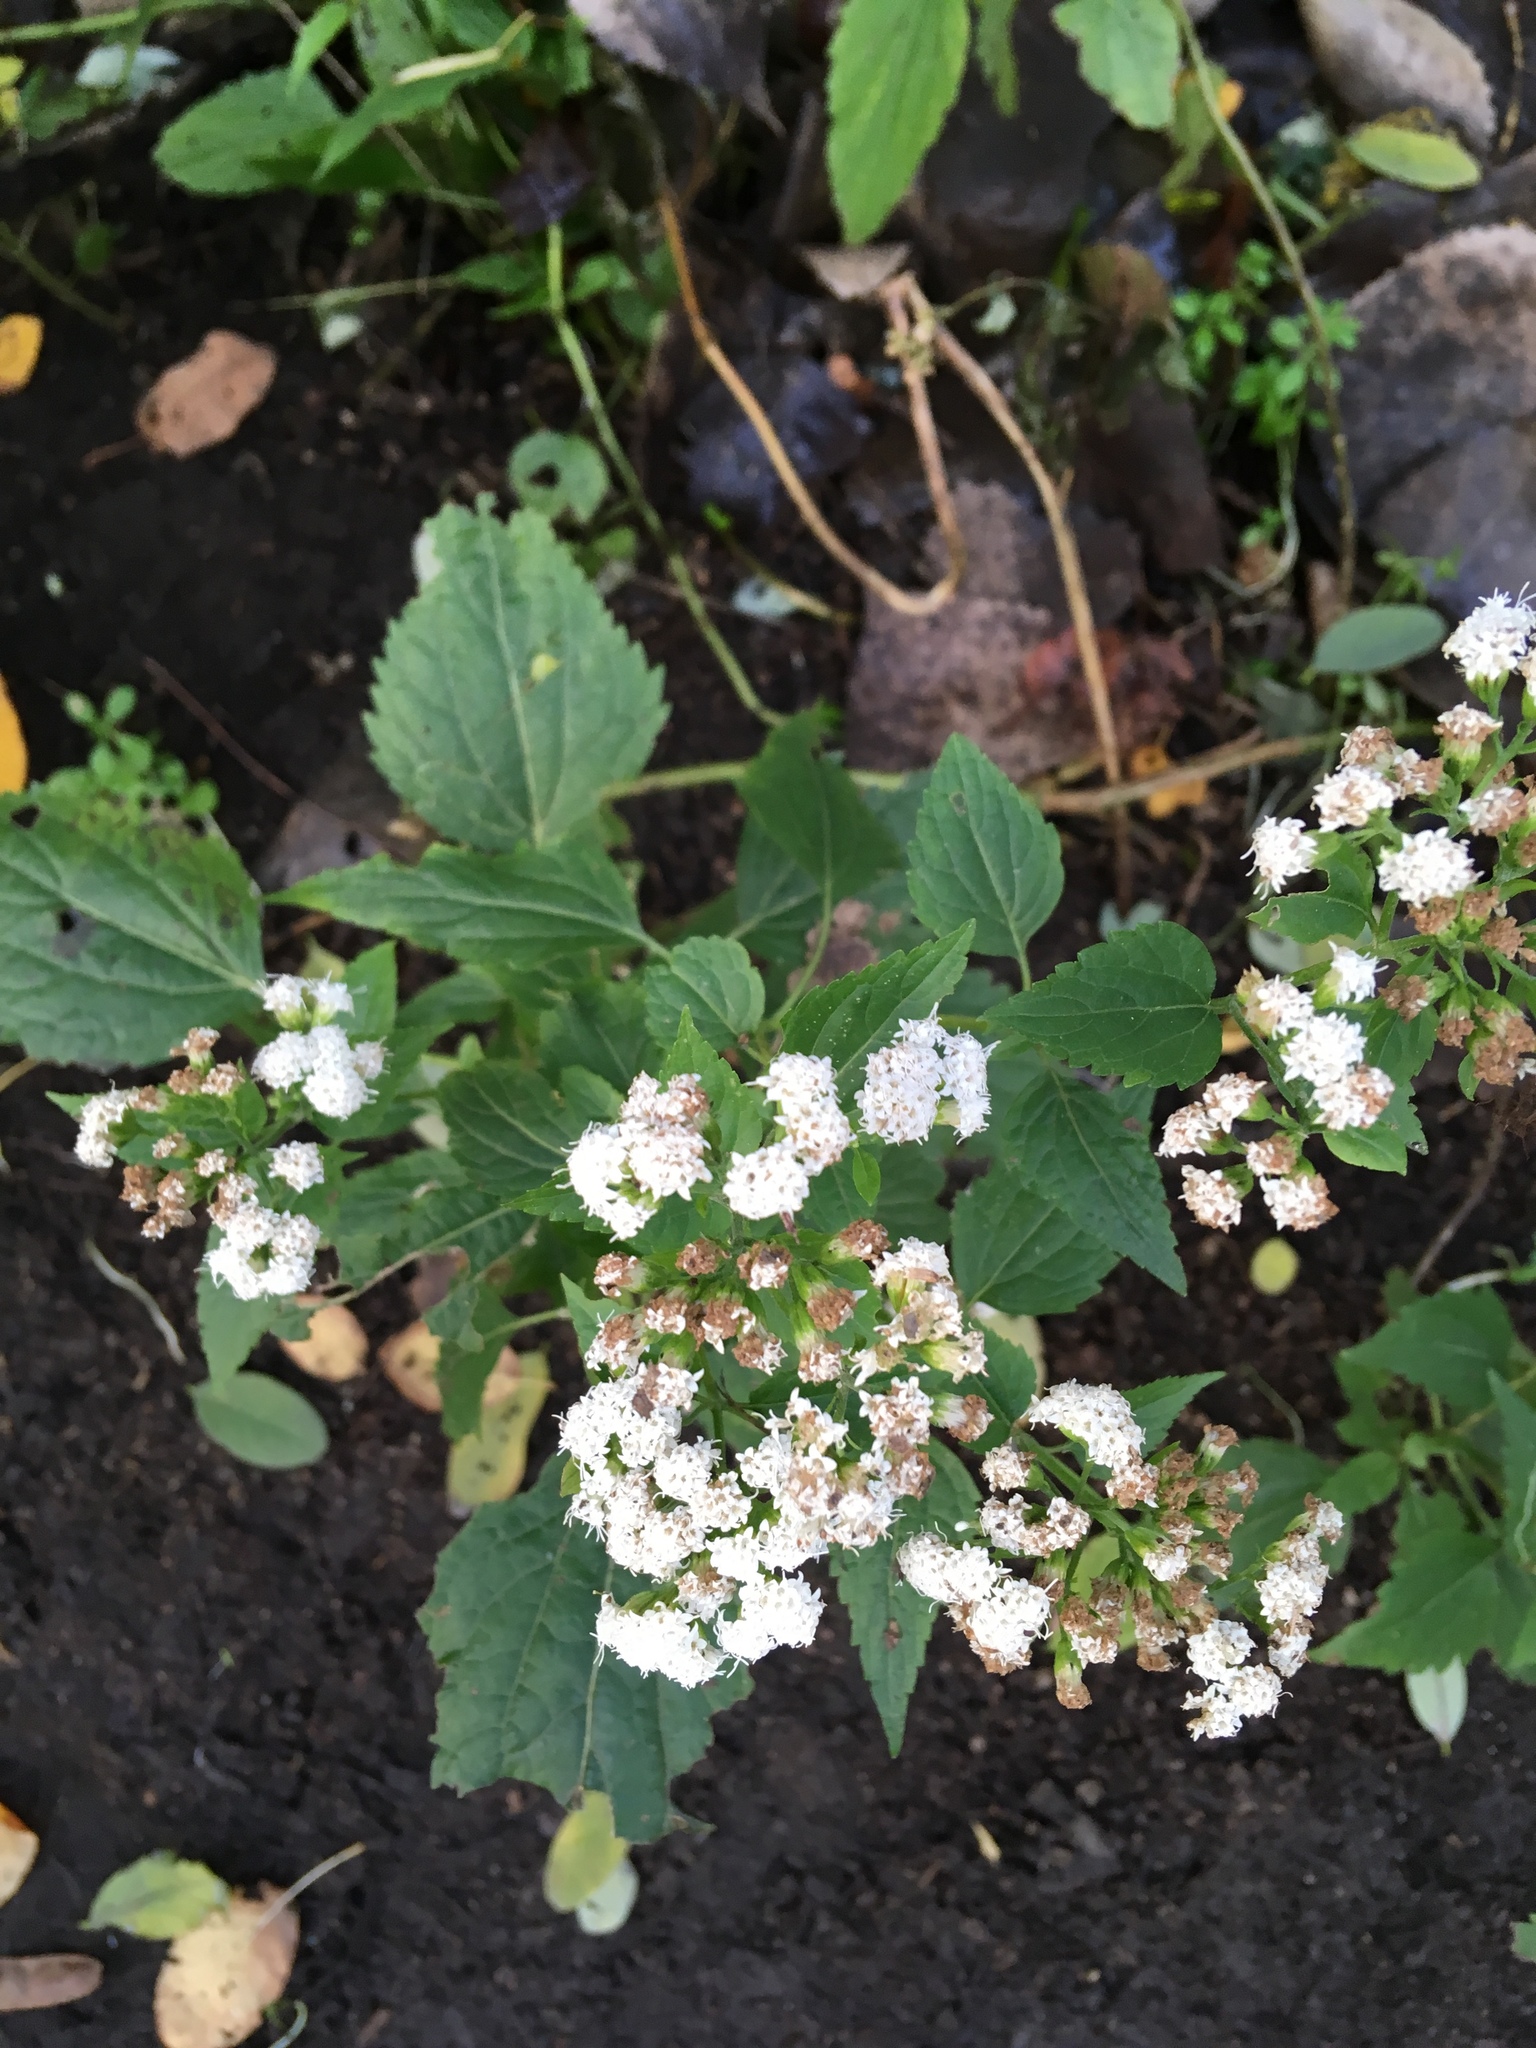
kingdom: Plantae
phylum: Tracheophyta
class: Magnoliopsida
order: Asterales
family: Asteraceae
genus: Ageratina
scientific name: Ageratina altissima
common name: White snakeroot
